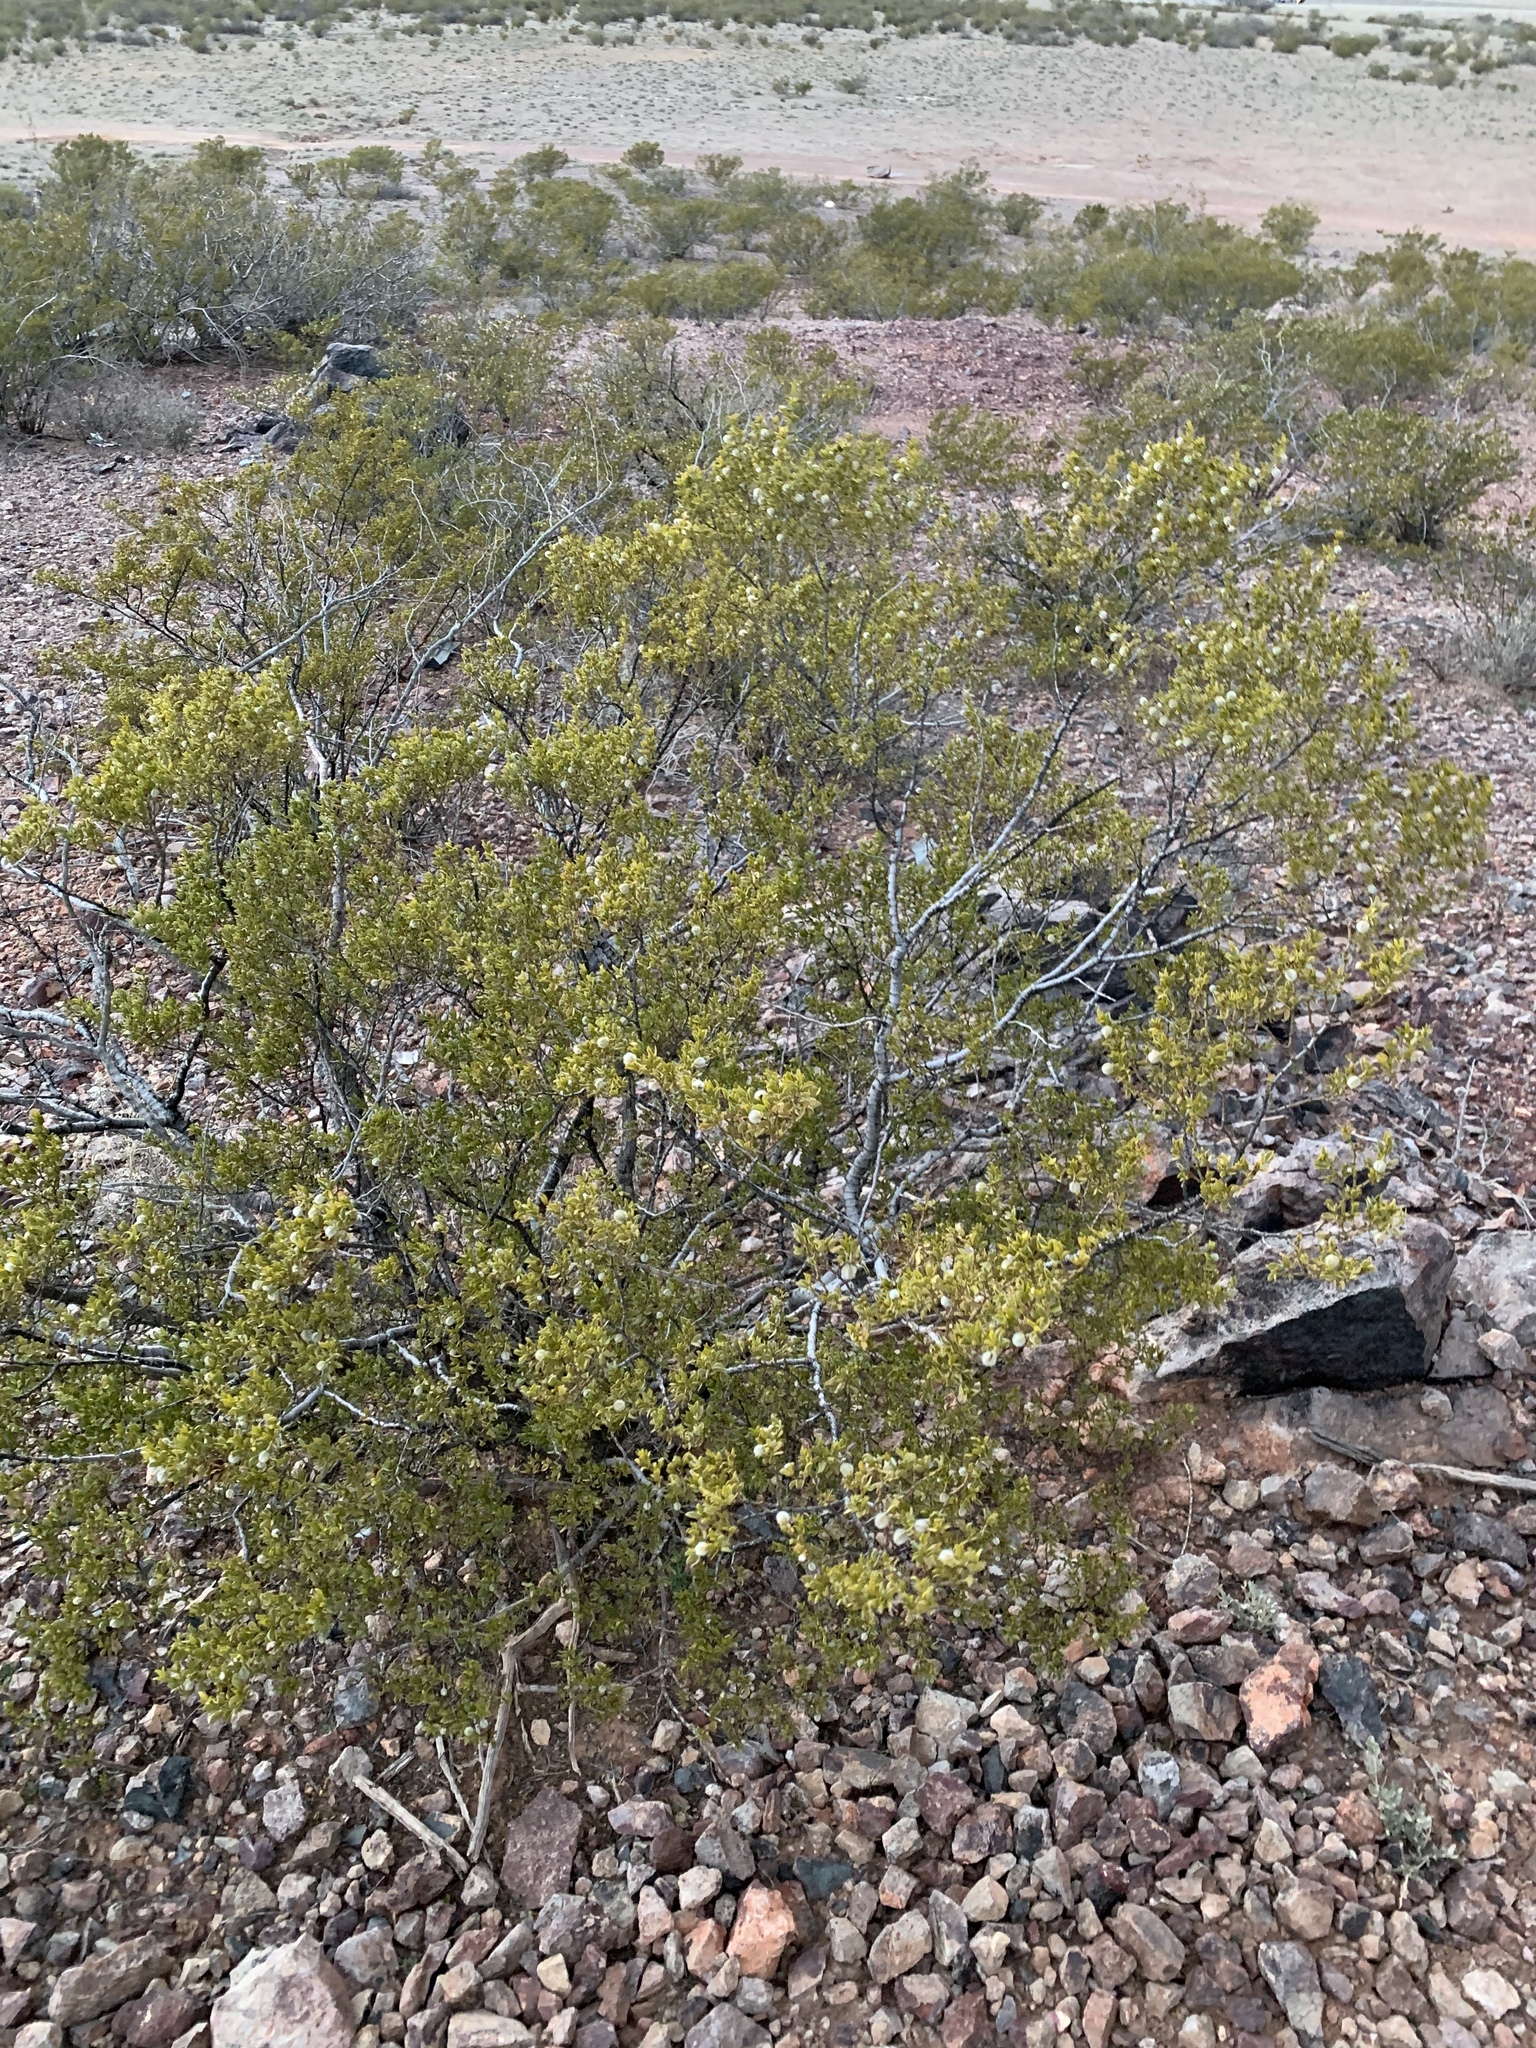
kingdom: Plantae
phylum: Tracheophyta
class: Magnoliopsida
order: Zygophyllales
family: Zygophyllaceae
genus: Larrea
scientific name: Larrea tridentata
